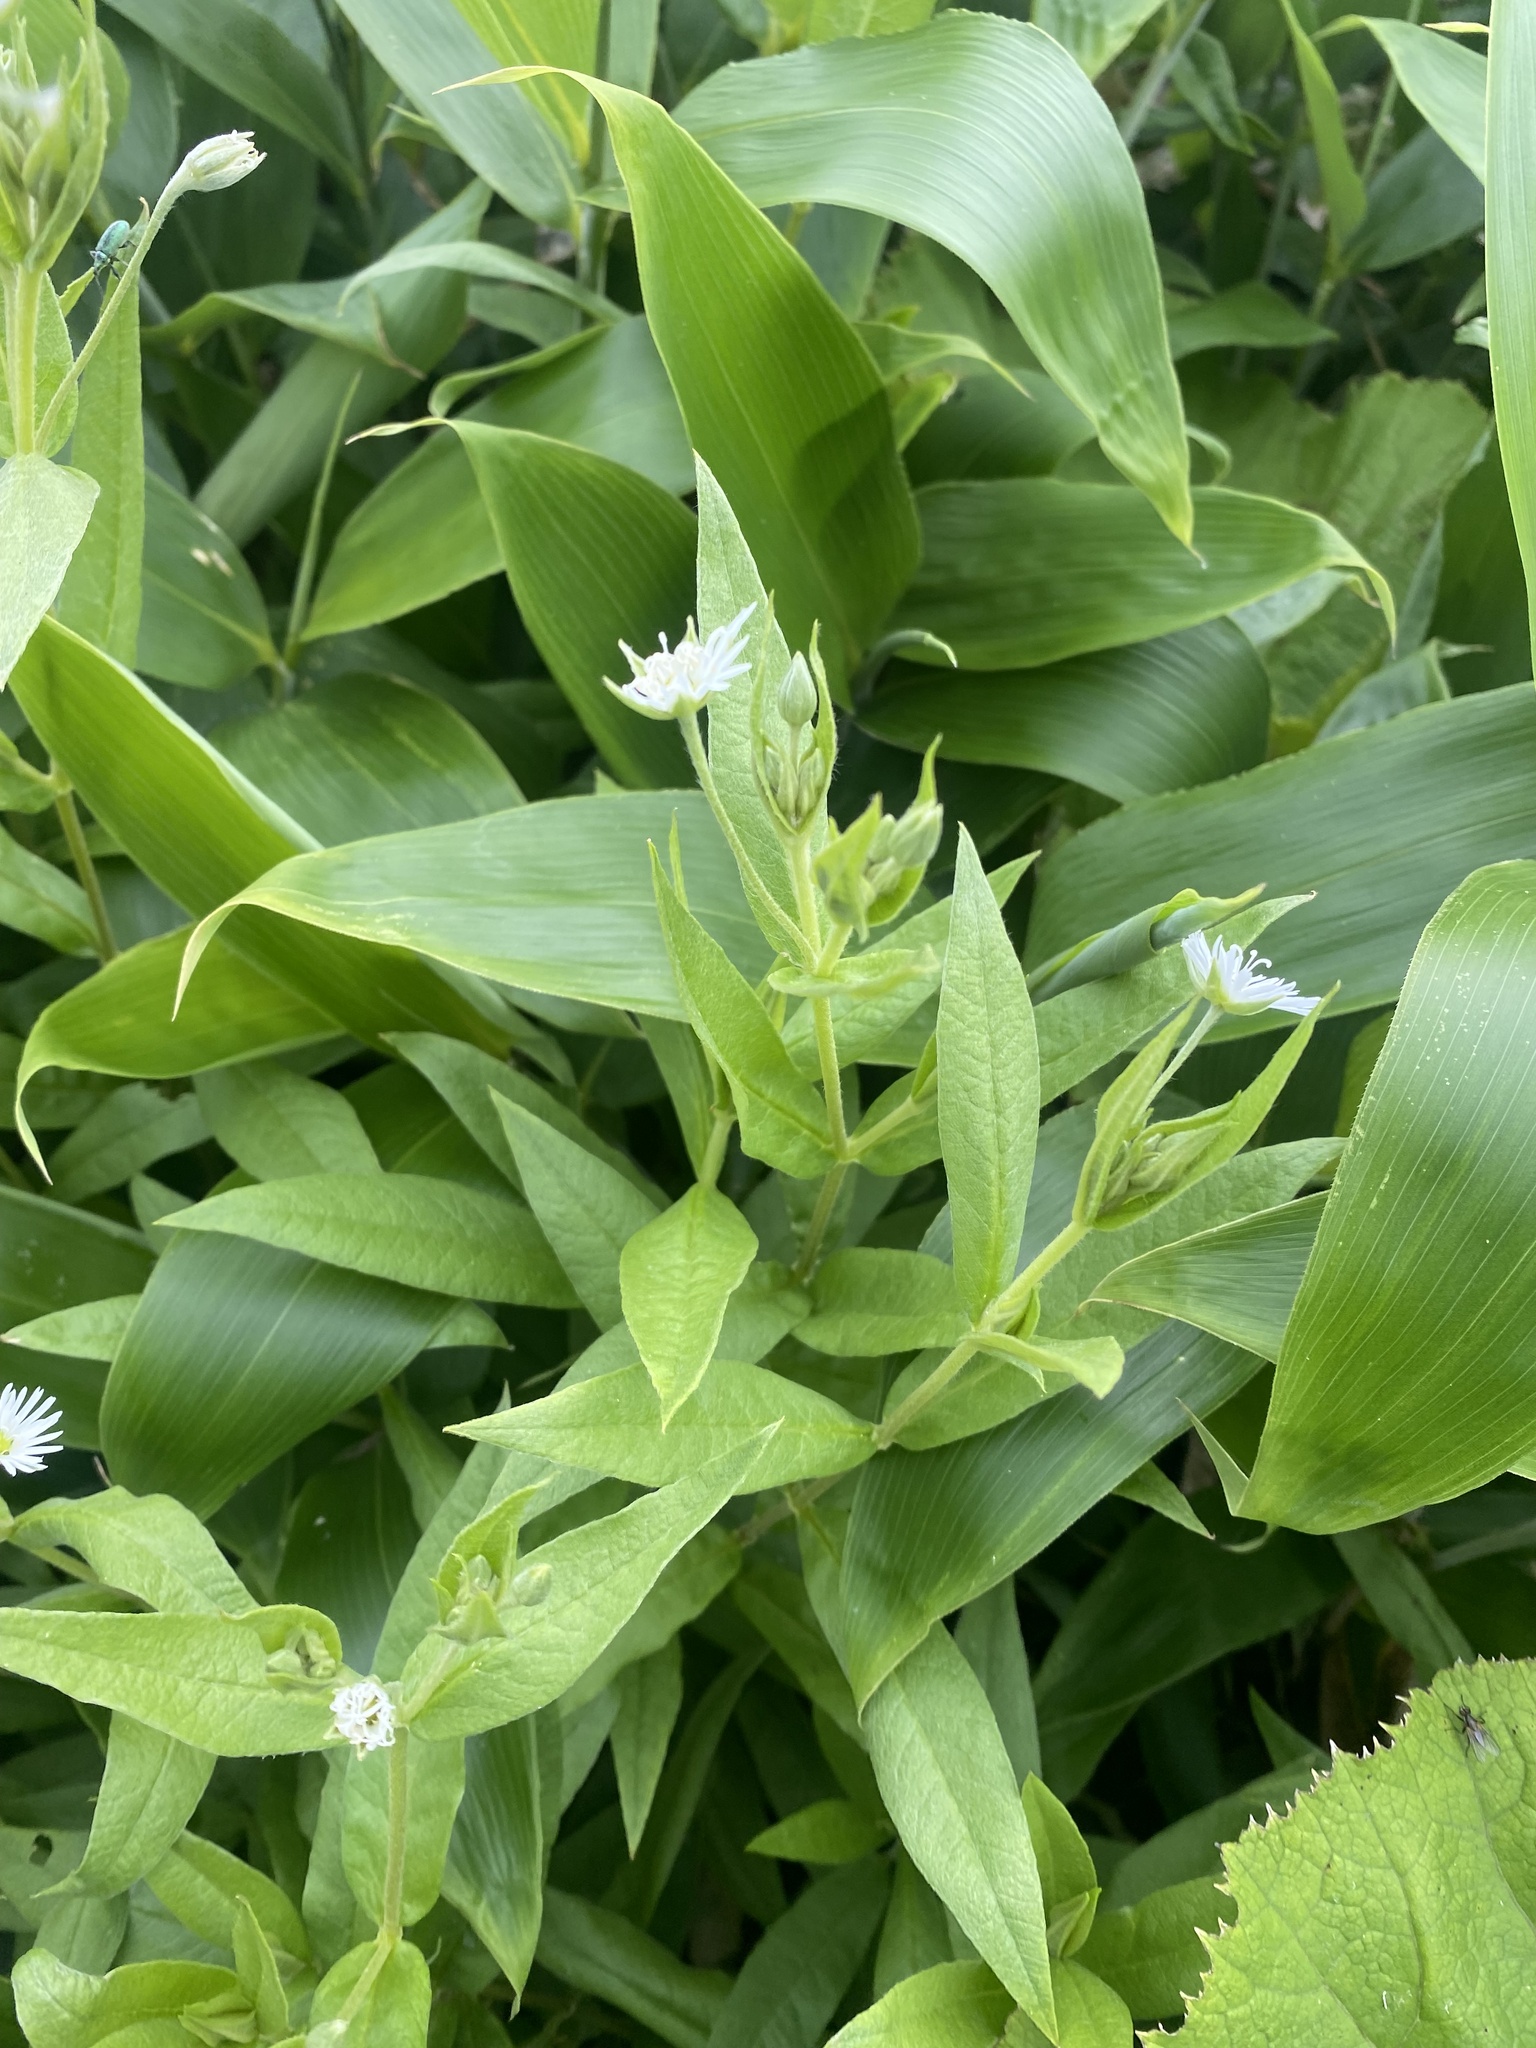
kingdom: Plantae
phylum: Tracheophyta
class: Magnoliopsida
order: Caryophyllales
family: Caryophyllaceae
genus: Stellaria
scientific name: Stellaria radians
